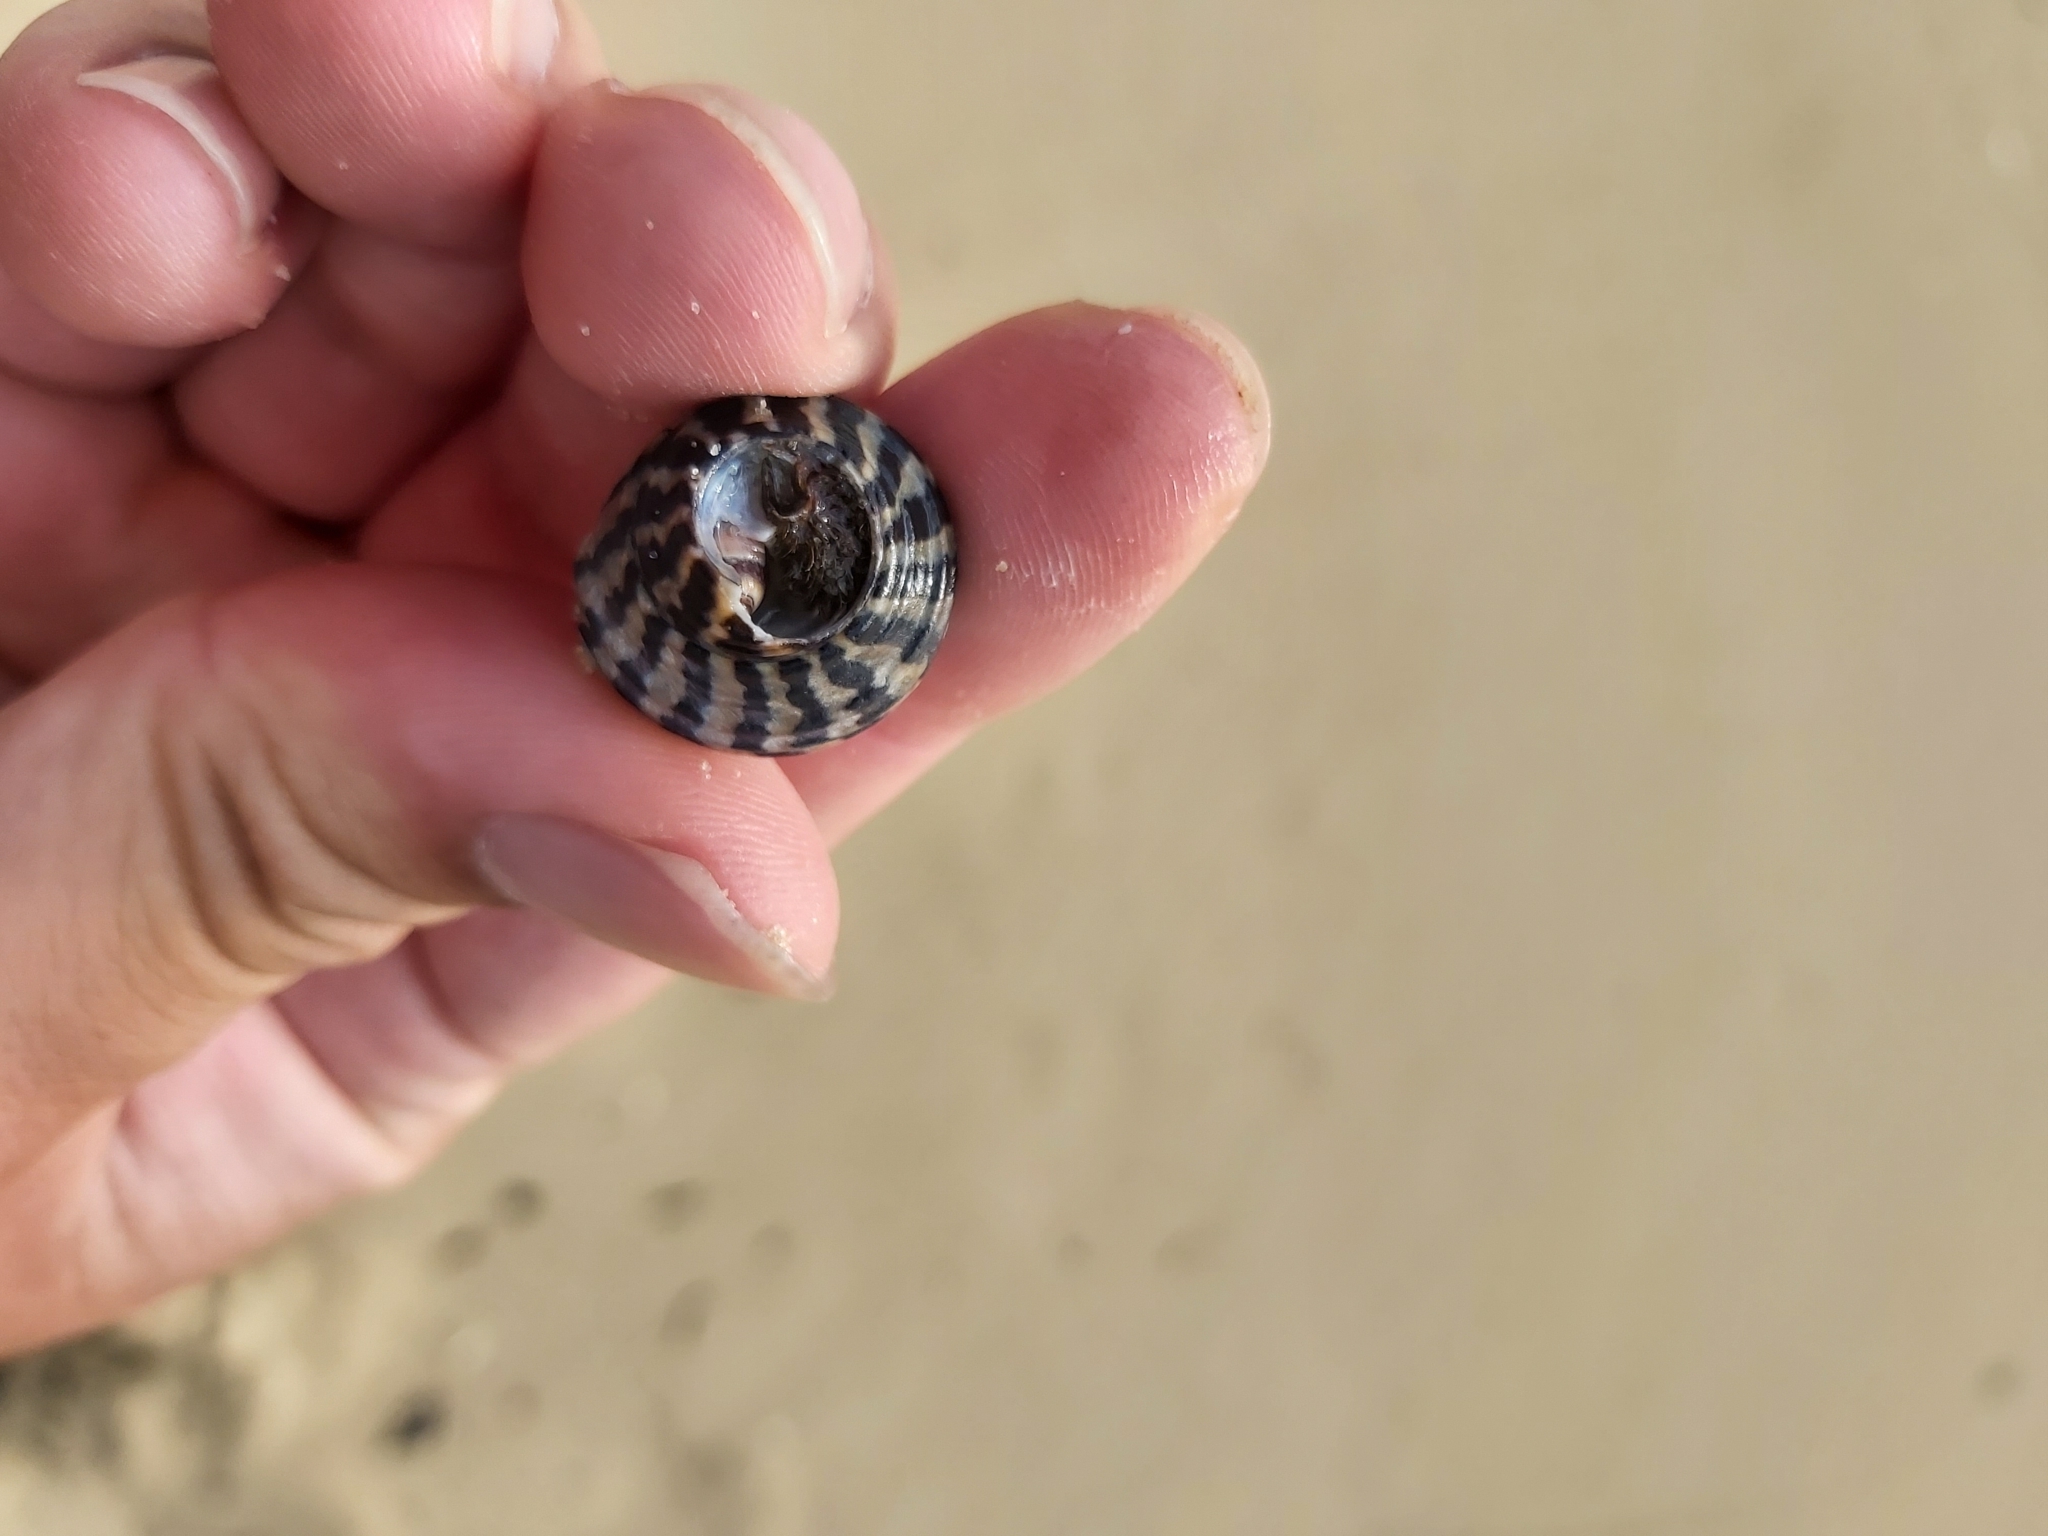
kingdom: Animalia
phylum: Mollusca
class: Gastropoda
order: Trochida
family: Trochidae
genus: Austrocochlea
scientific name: Austrocochlea porcata
